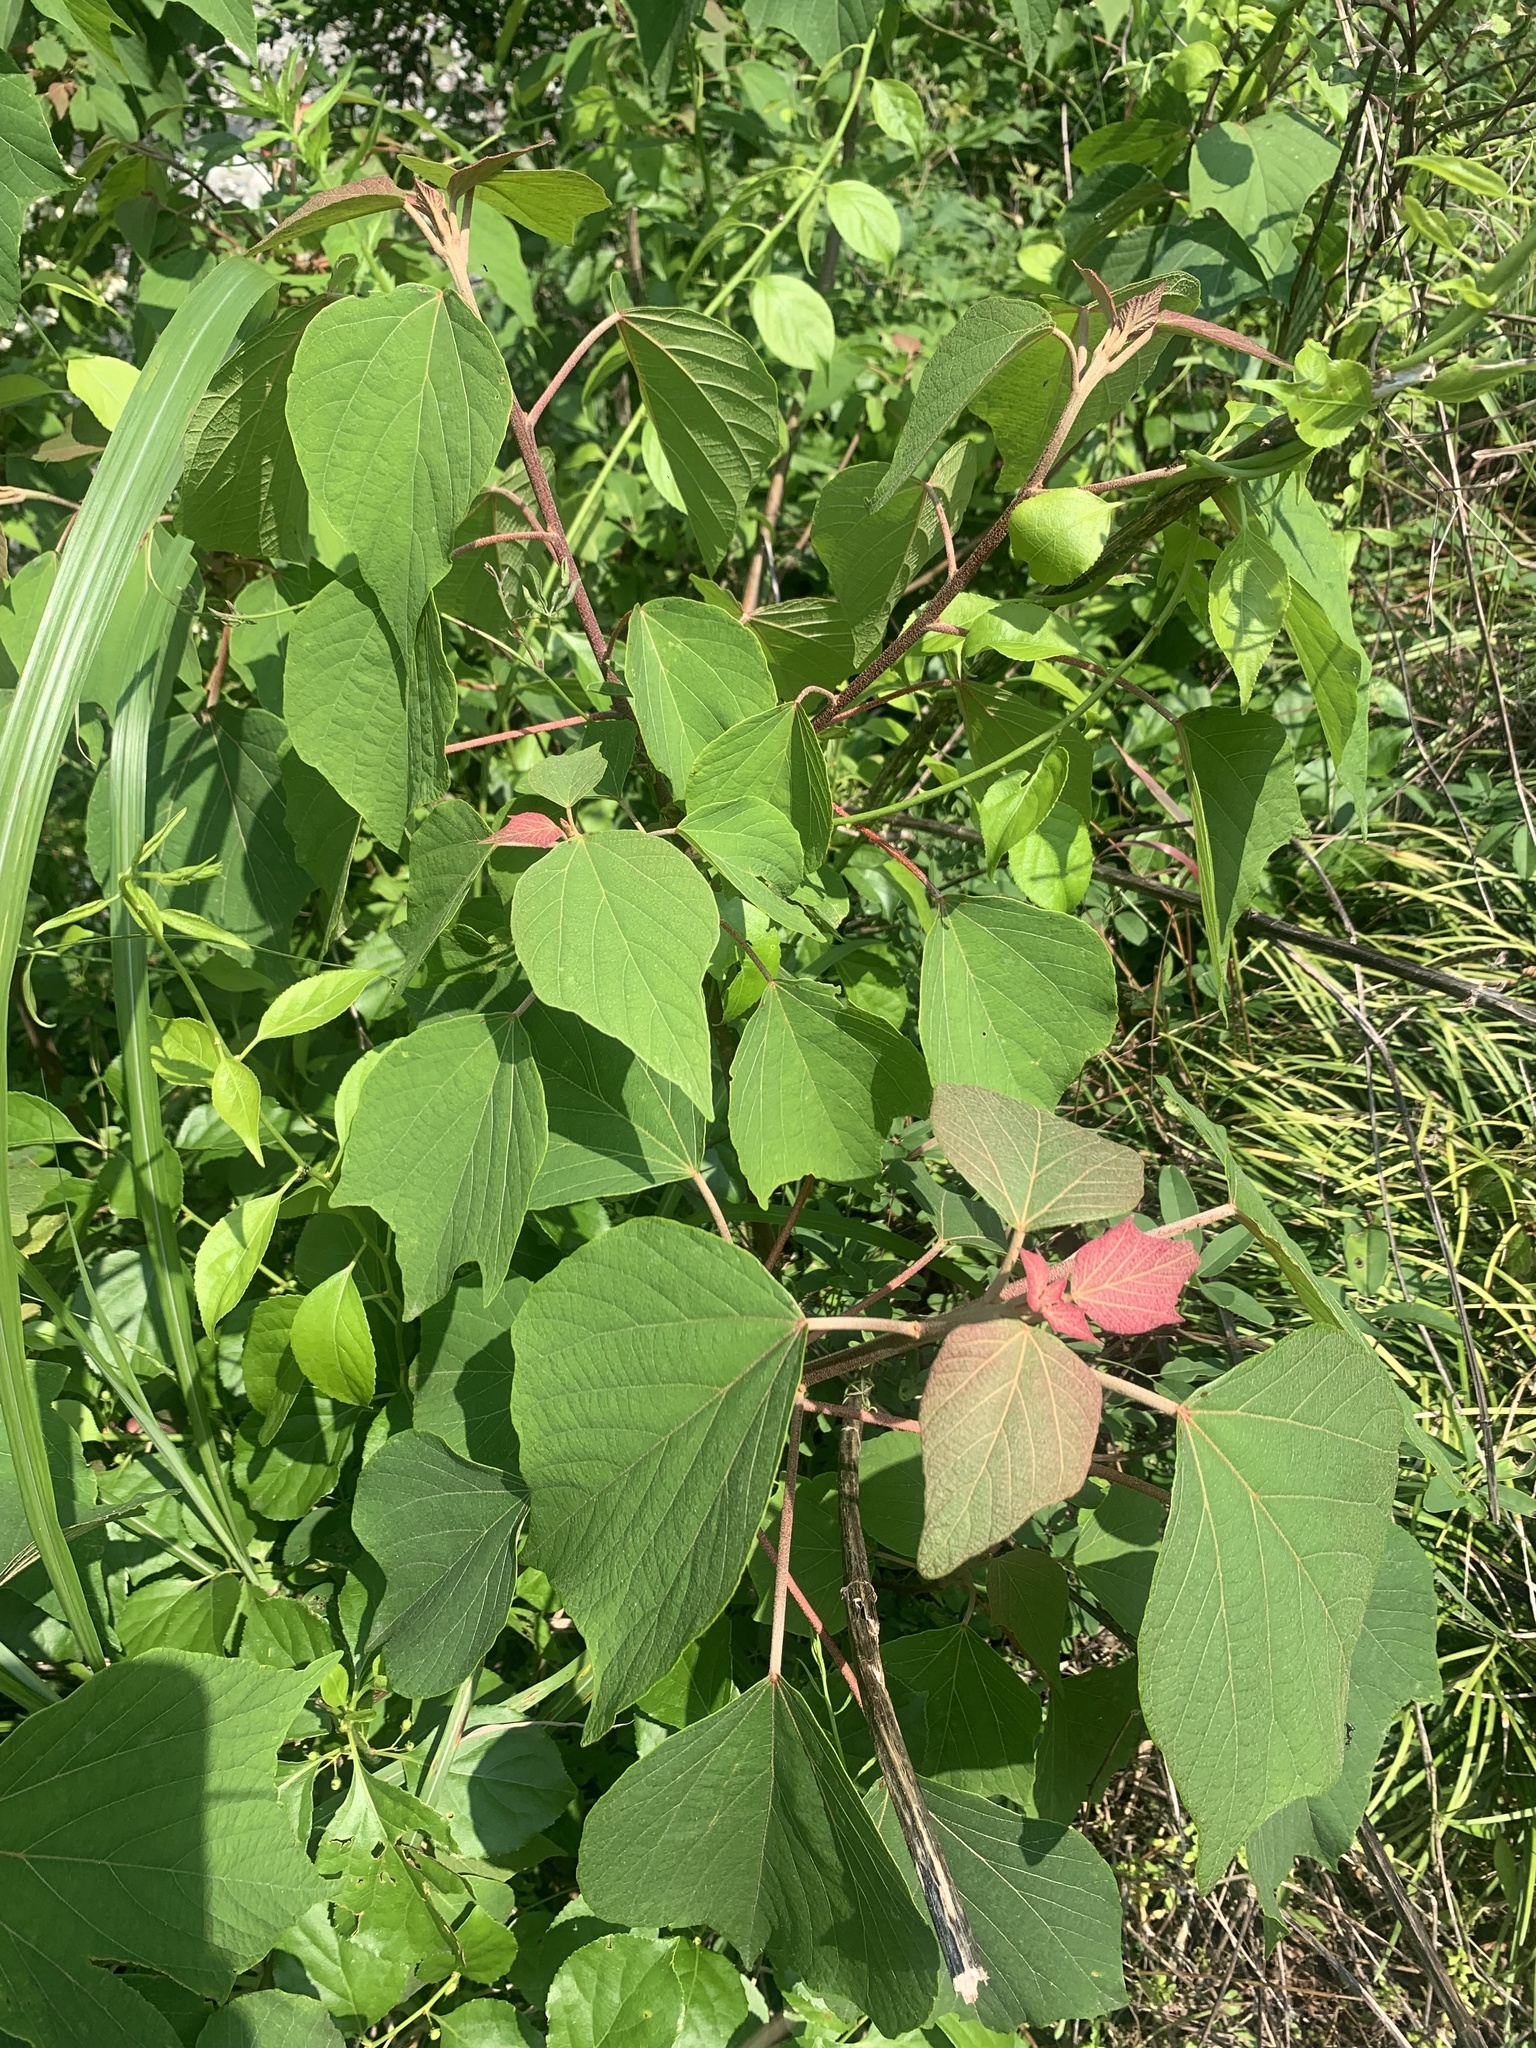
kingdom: Plantae
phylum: Tracheophyta
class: Magnoliopsida
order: Malpighiales
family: Euphorbiaceae
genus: Mallotus
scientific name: Mallotus japonicus
